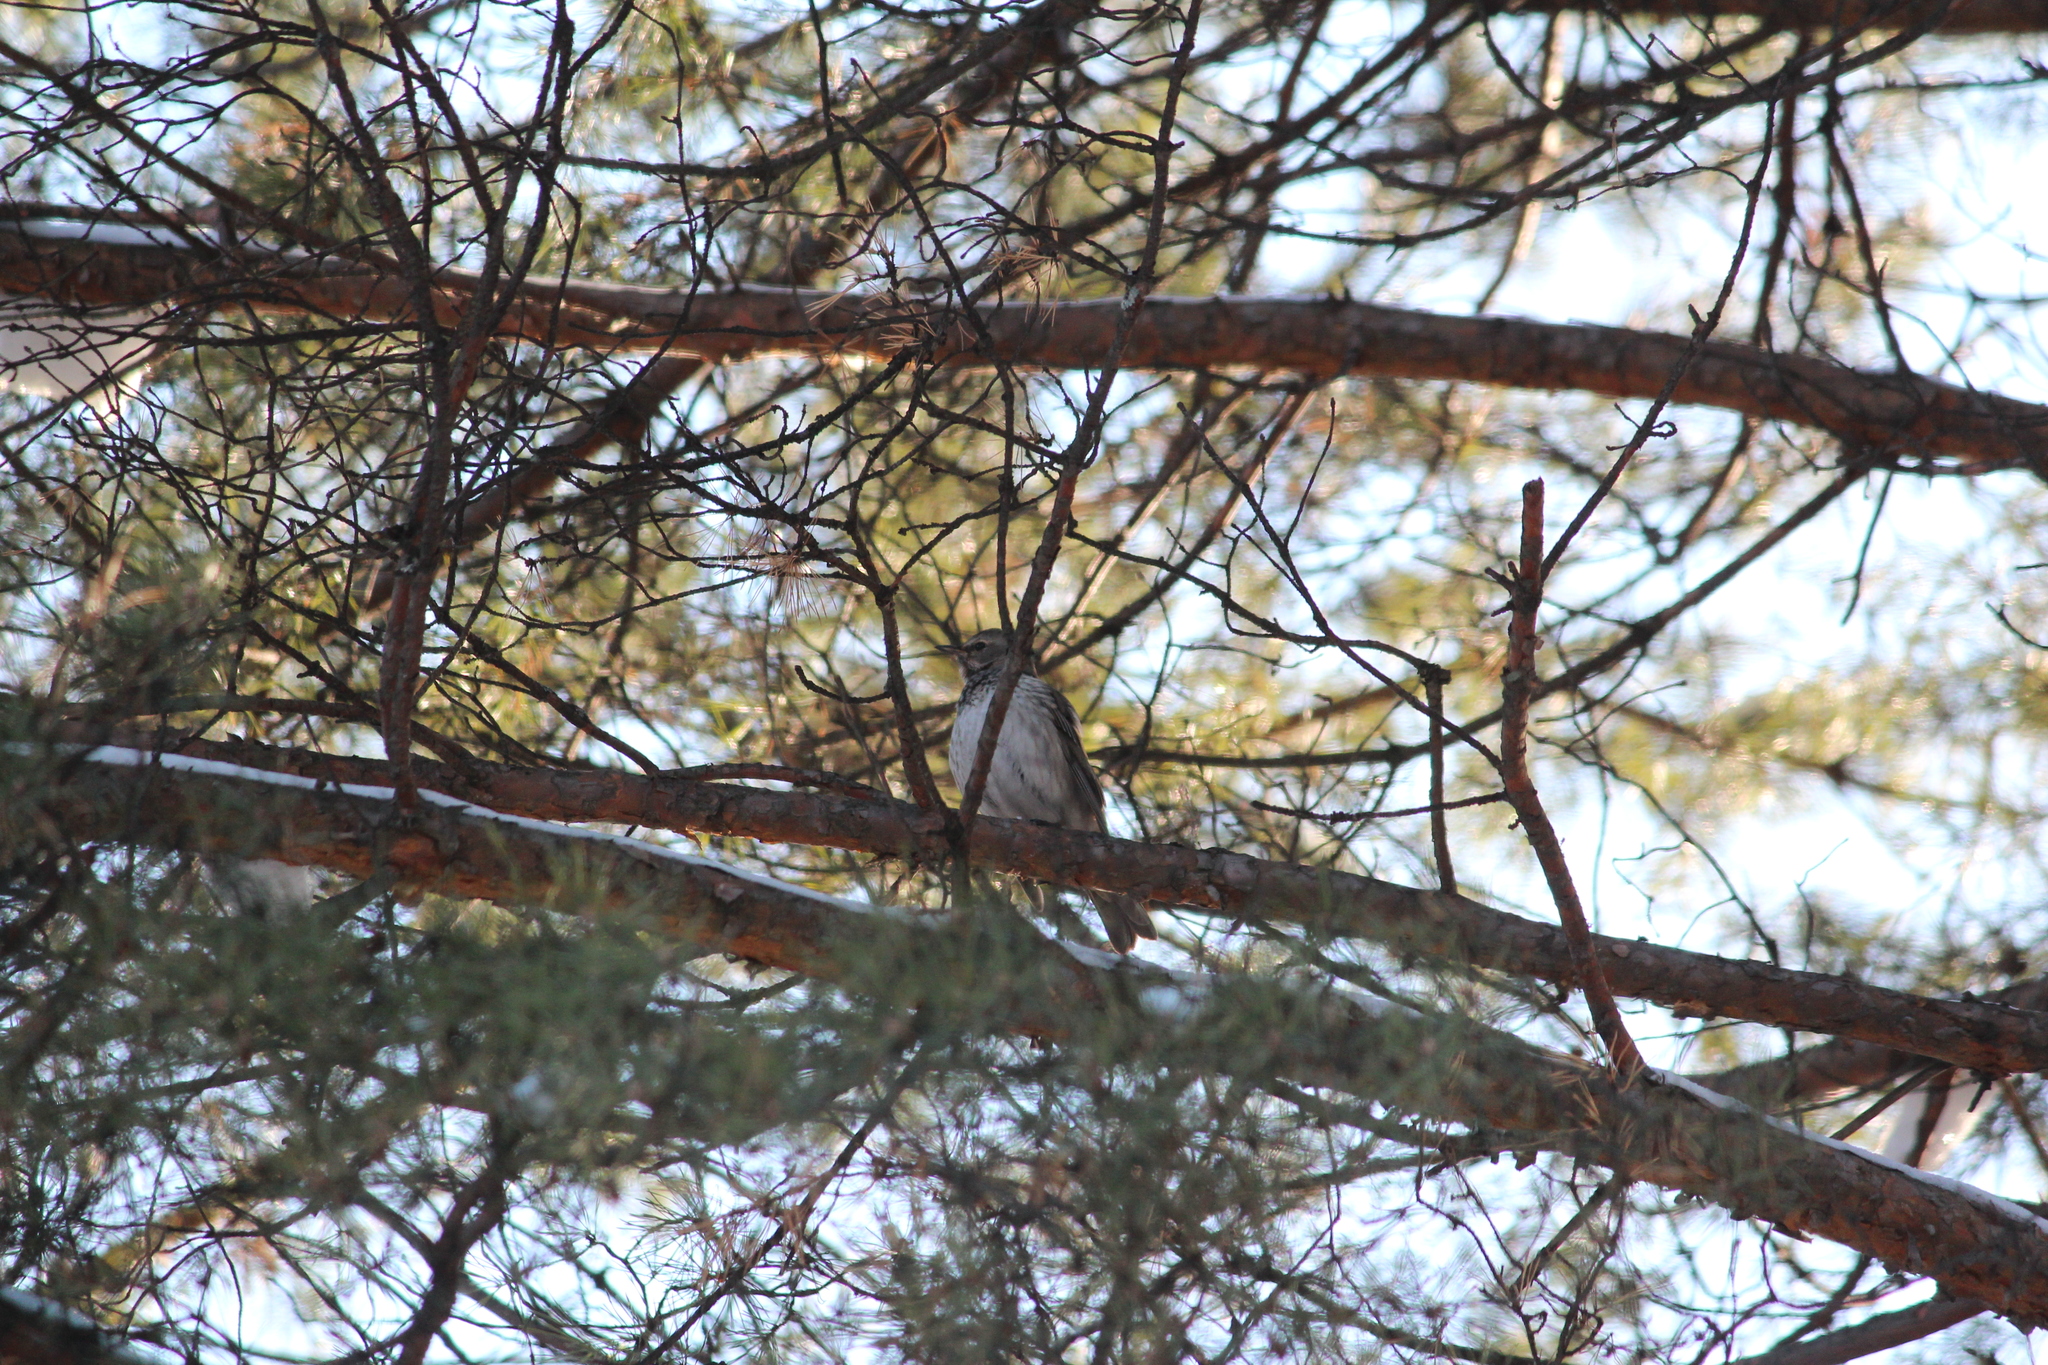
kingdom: Animalia
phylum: Chordata
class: Aves
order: Passeriformes
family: Turdidae
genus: Turdus
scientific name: Turdus atrogularis
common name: Black-throated thrush
